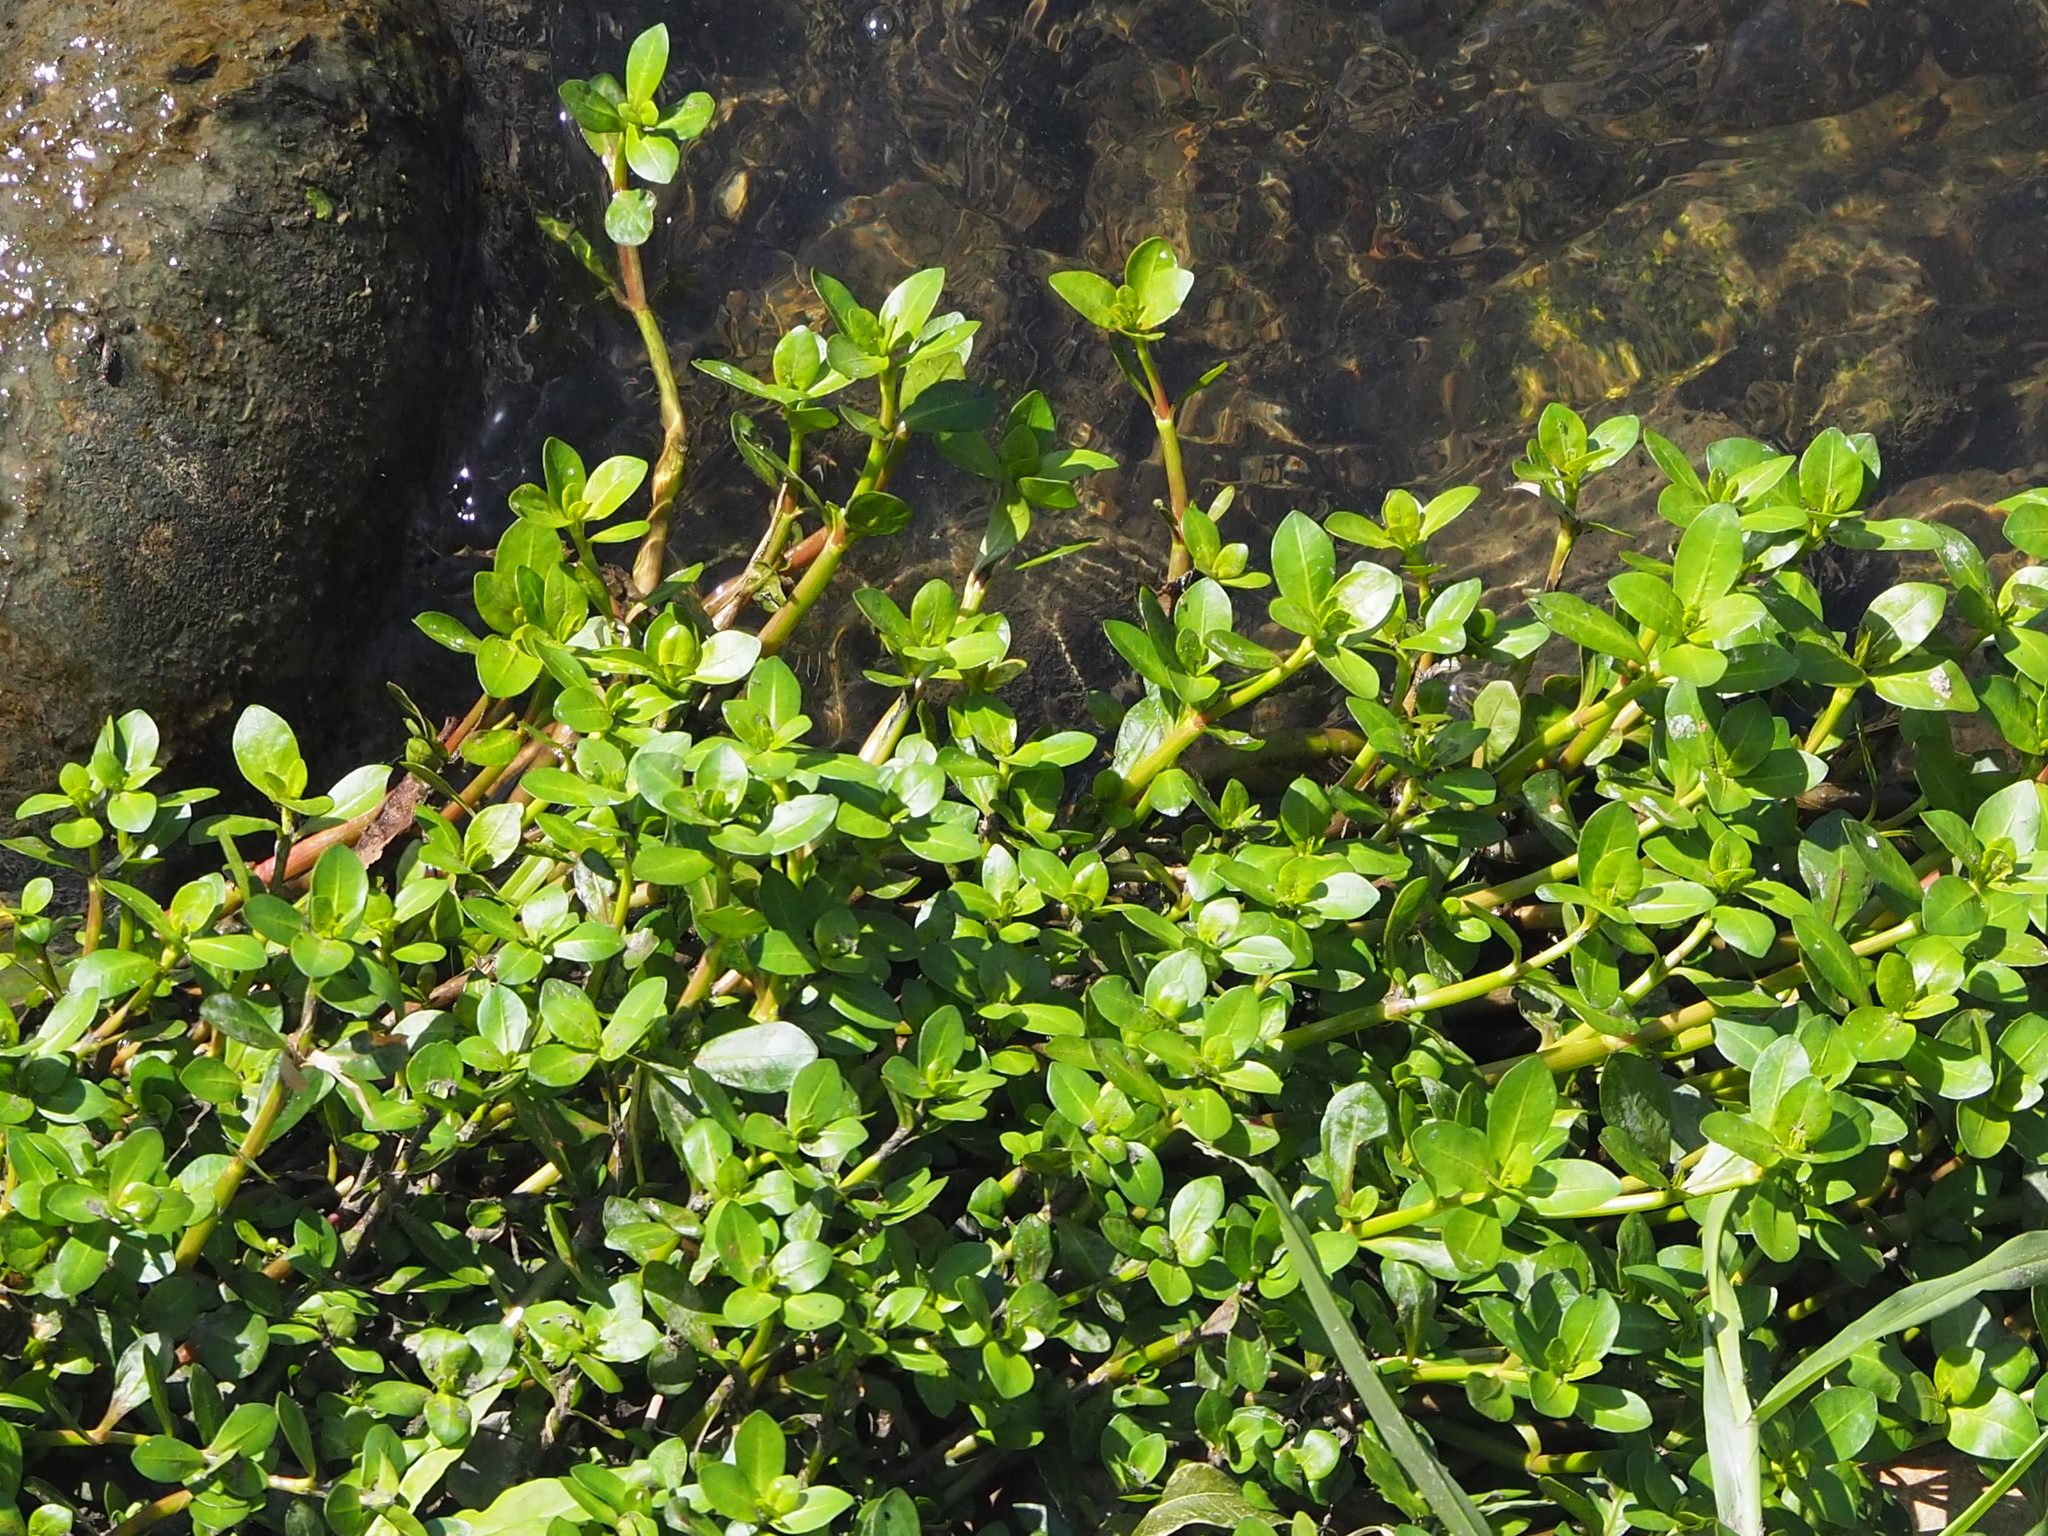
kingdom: Plantae
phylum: Tracheophyta
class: Magnoliopsida
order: Caryophyllales
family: Amaranthaceae
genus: Alternanthera
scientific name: Alternanthera philoxeroides
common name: Alligatorweed
